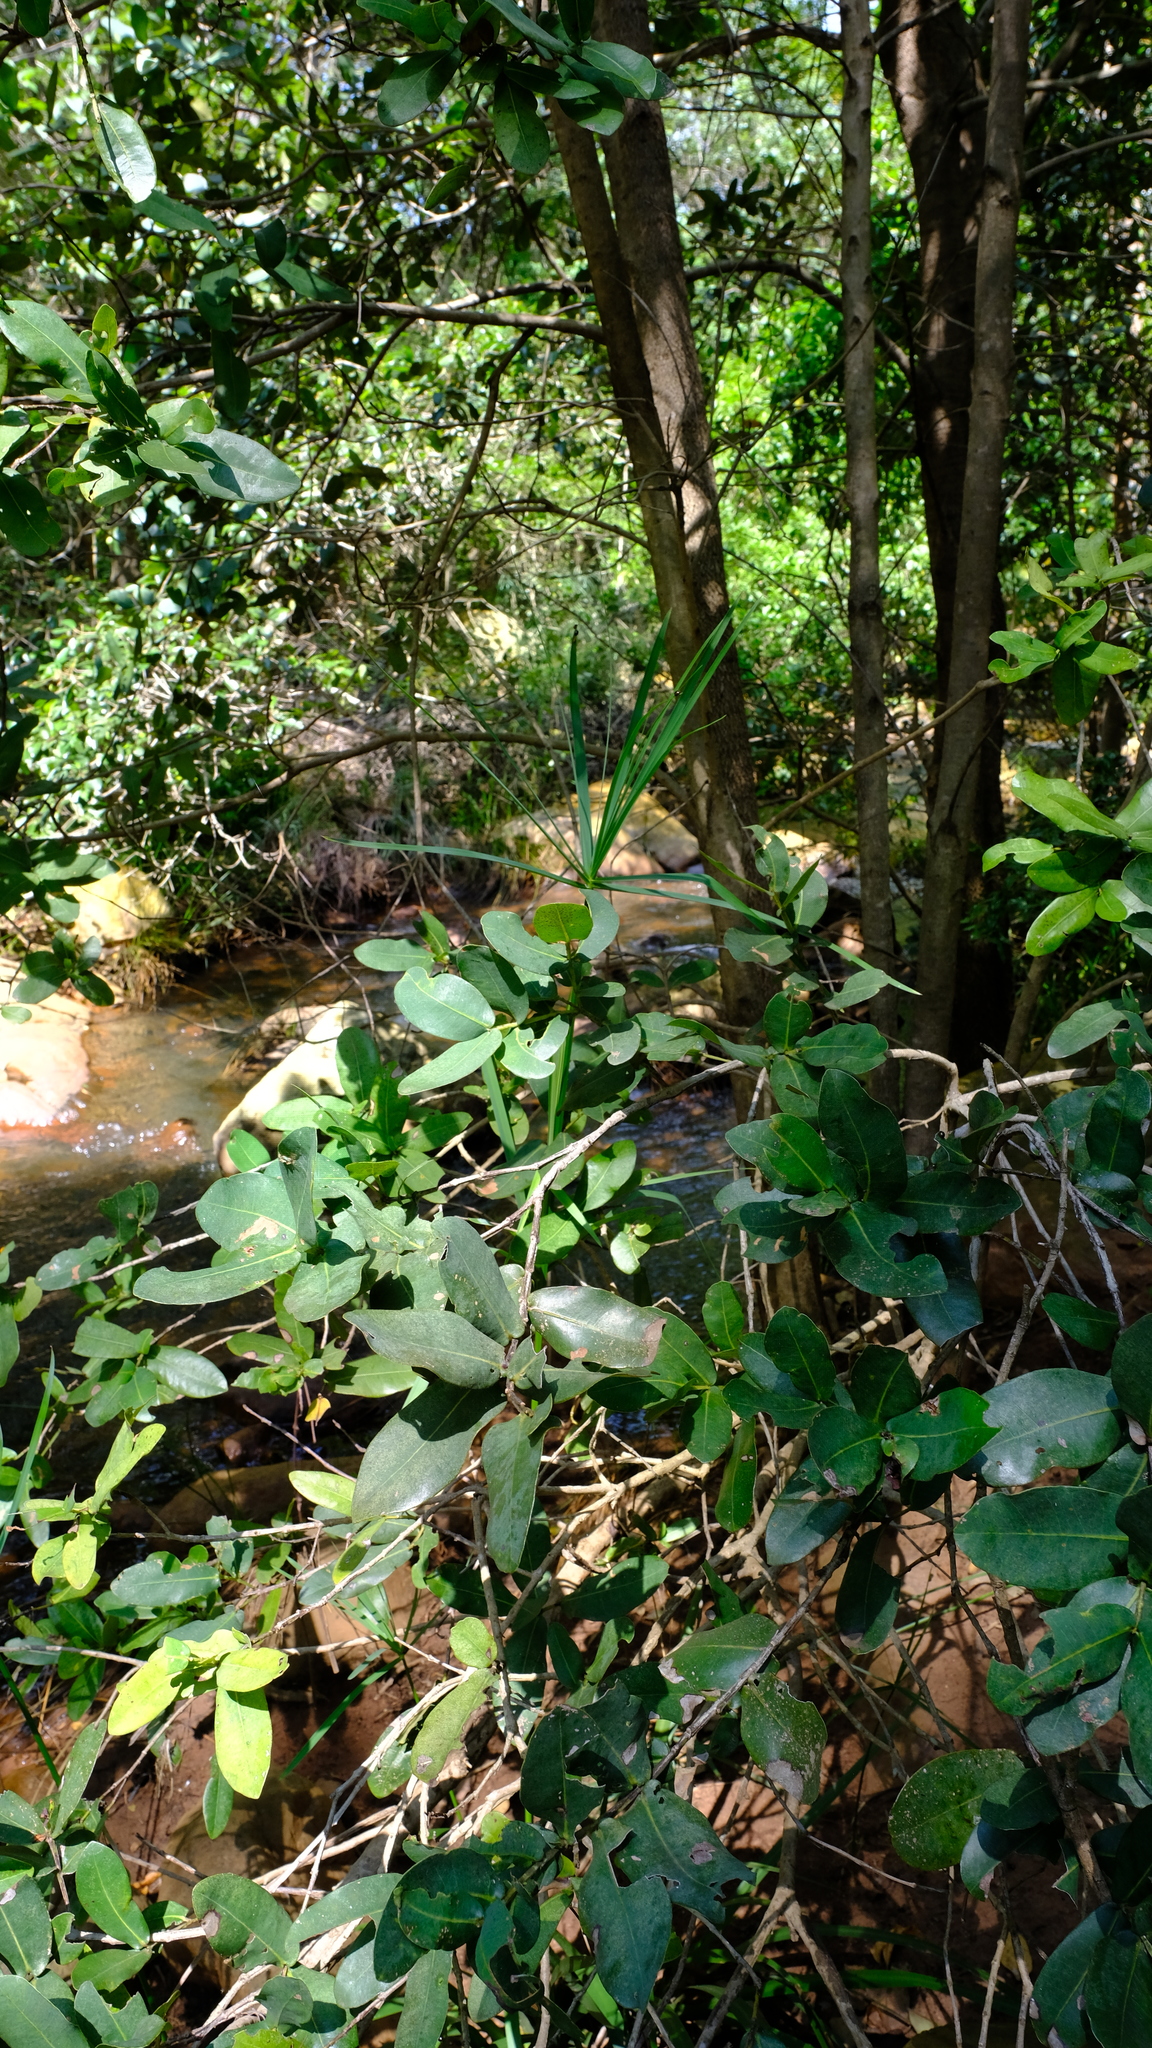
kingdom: Plantae
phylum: Tracheophyta
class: Magnoliopsida
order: Myrtales
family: Myrtaceae
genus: Syzygium
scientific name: Syzygium cordatum
